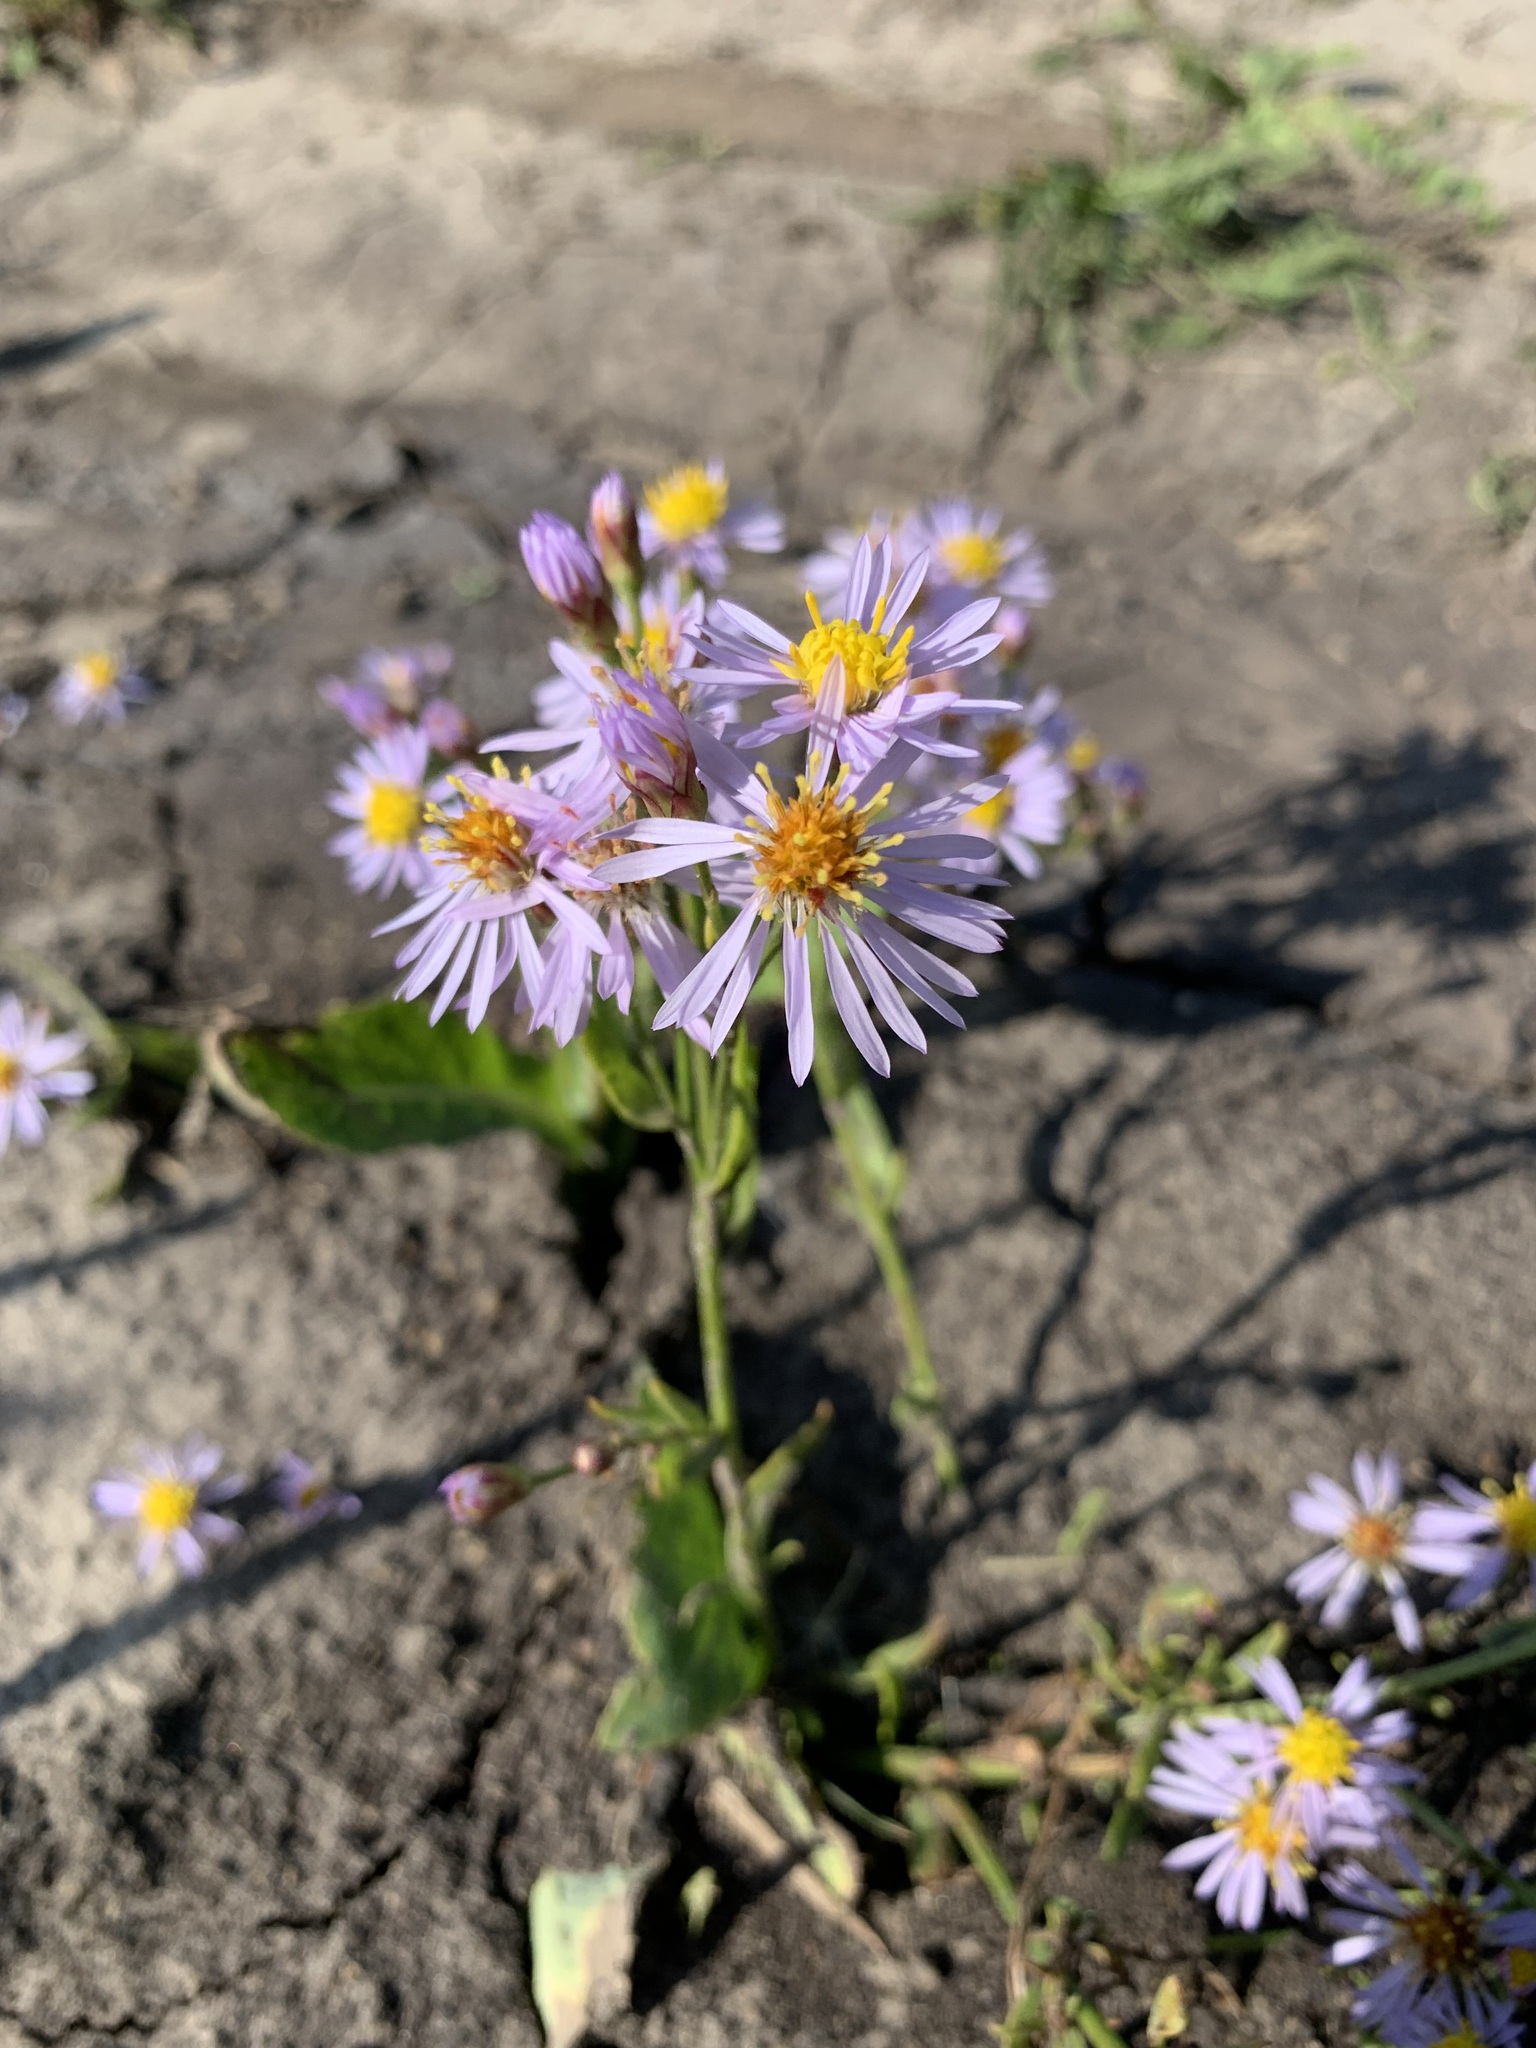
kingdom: Plantae
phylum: Tracheophyta
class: Magnoliopsida
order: Asterales
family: Asteraceae
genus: Tripolium
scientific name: Tripolium pannonicum
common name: Sea aster
